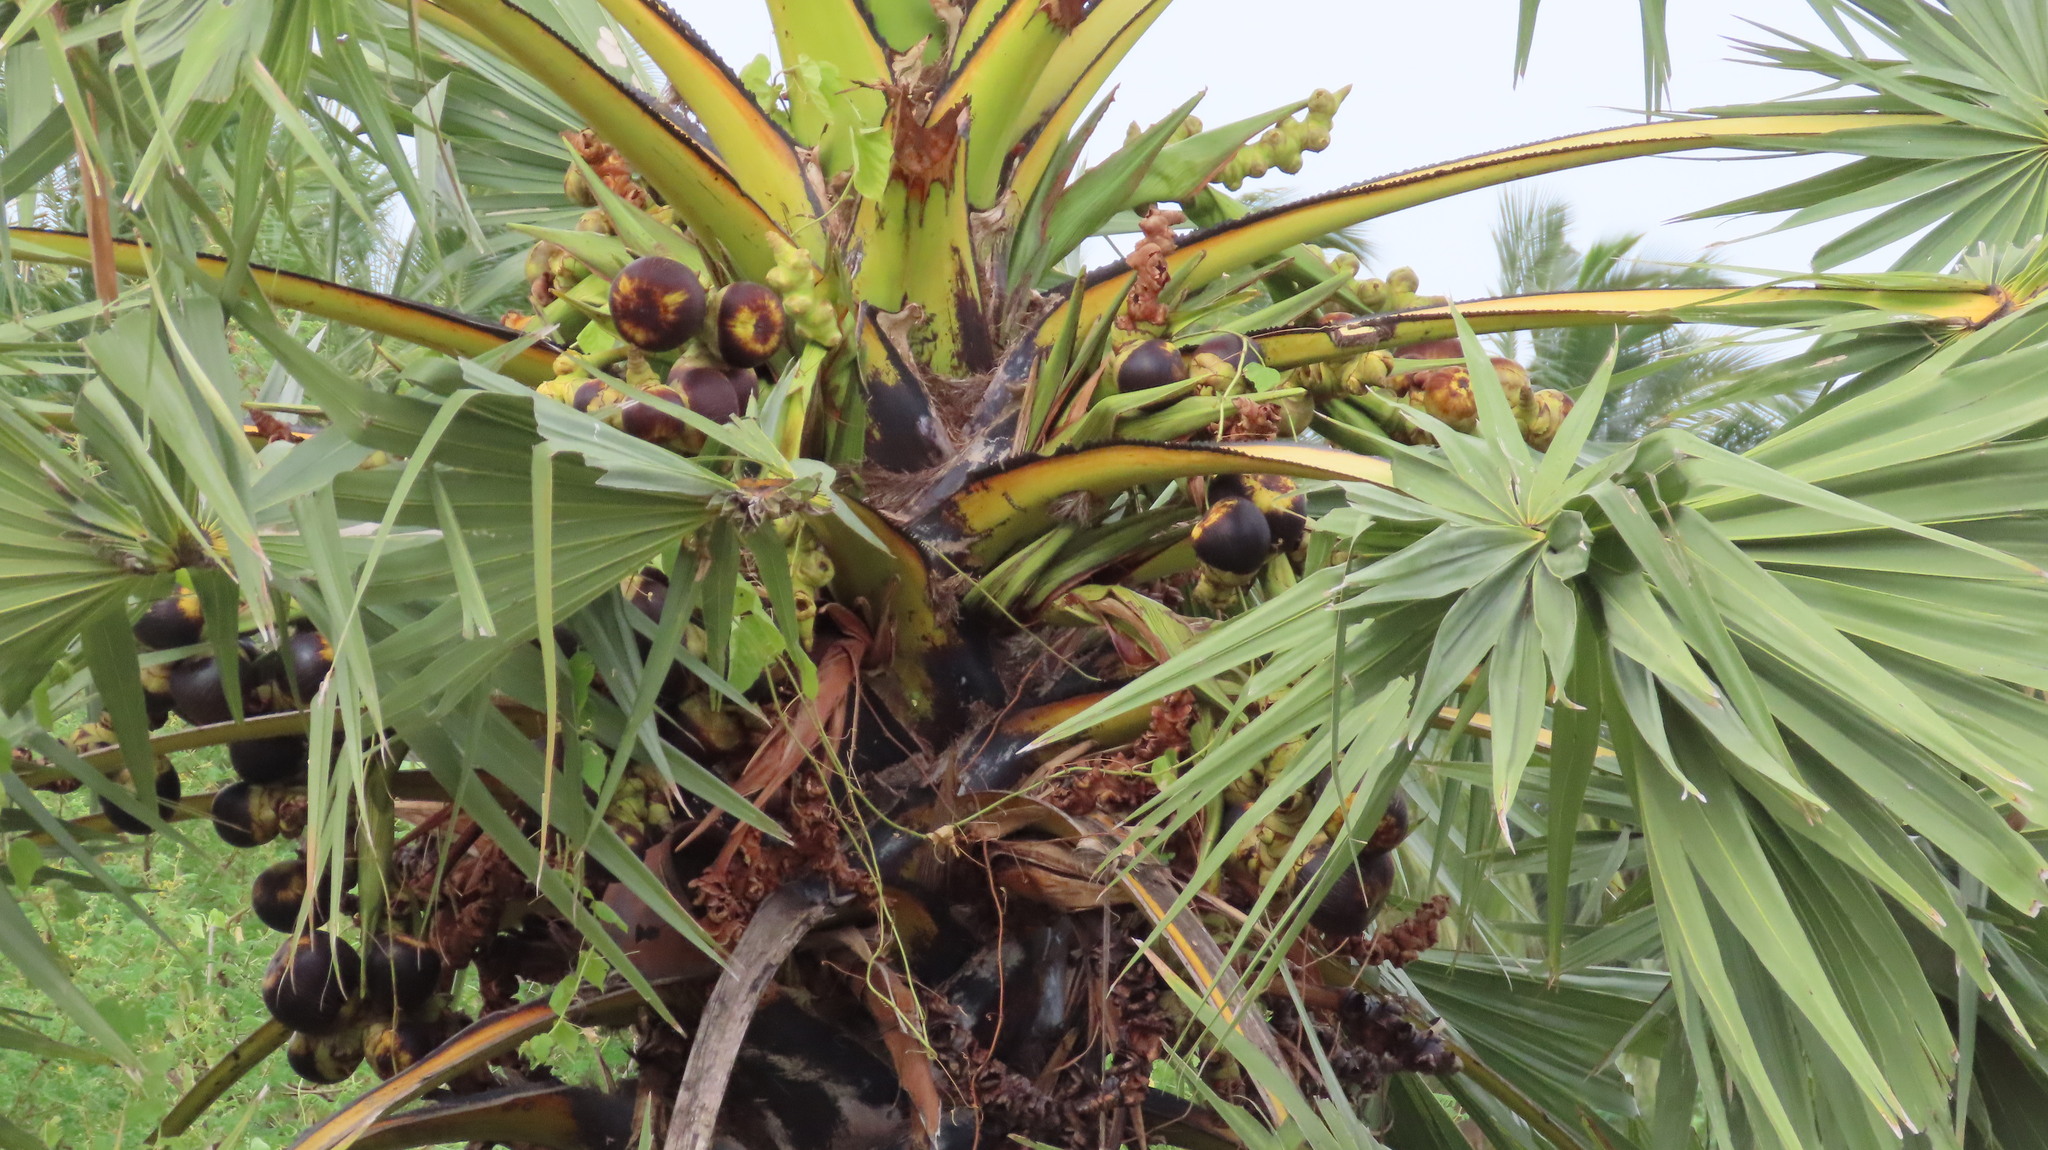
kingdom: Plantae
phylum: Tracheophyta
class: Liliopsida
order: Arecales
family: Arecaceae
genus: Borassus
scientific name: Borassus flabellifer
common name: Palmyra palm
